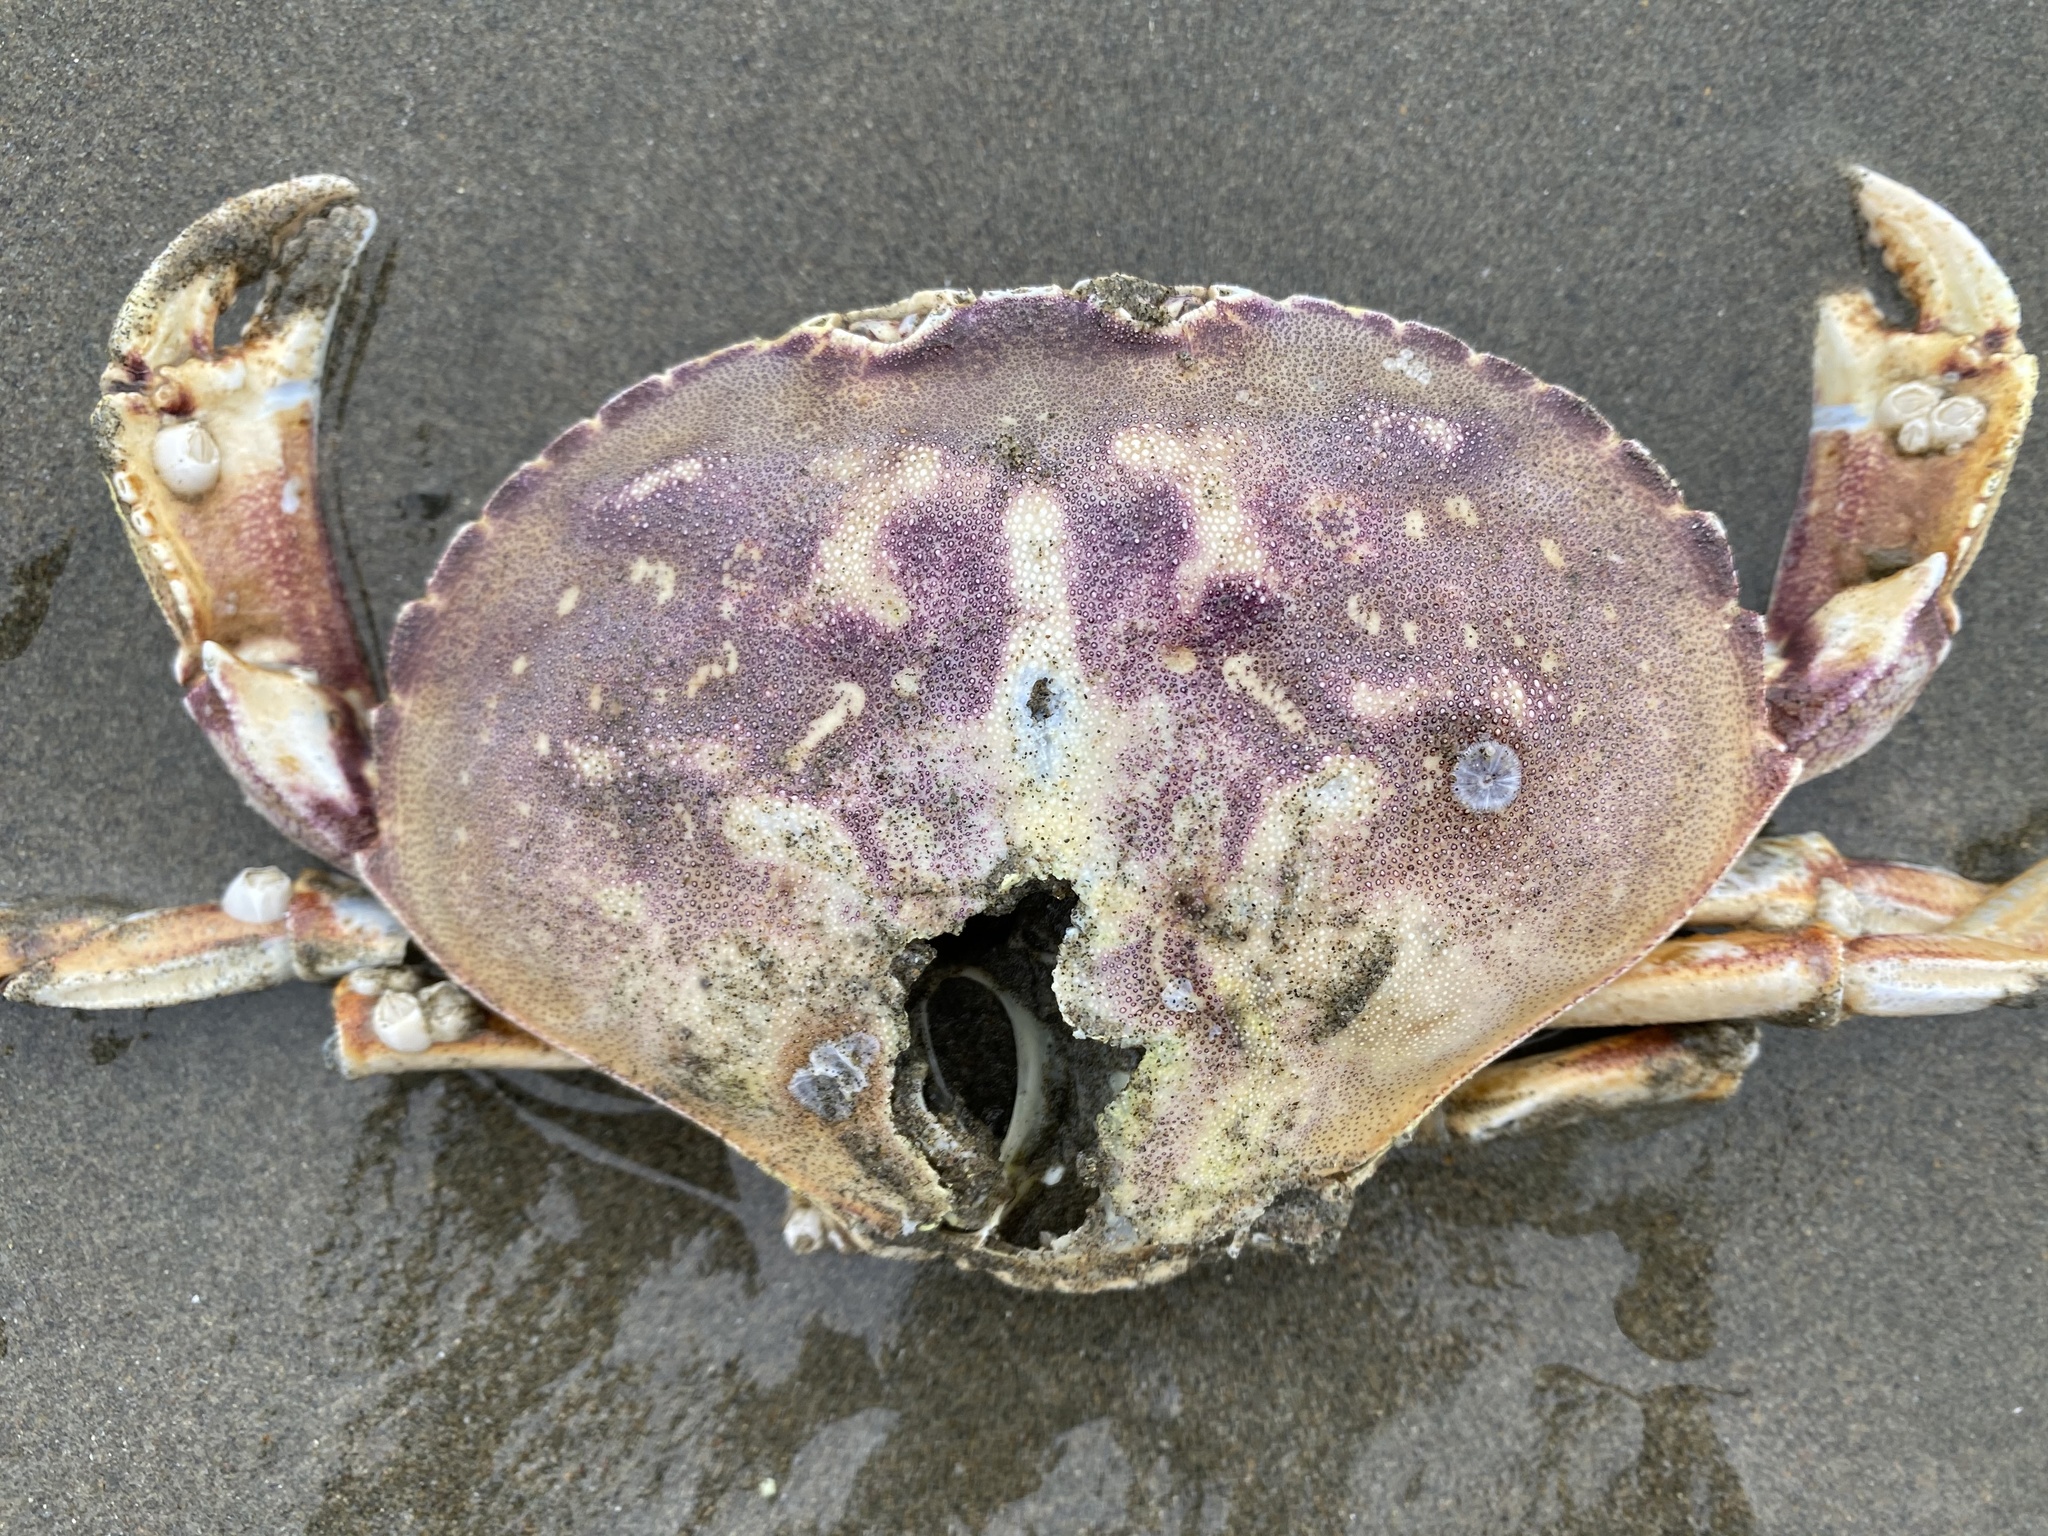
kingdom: Animalia
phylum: Arthropoda
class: Malacostraca
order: Decapoda
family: Cancridae
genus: Metacarcinus
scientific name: Metacarcinus magister
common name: Californian crab
